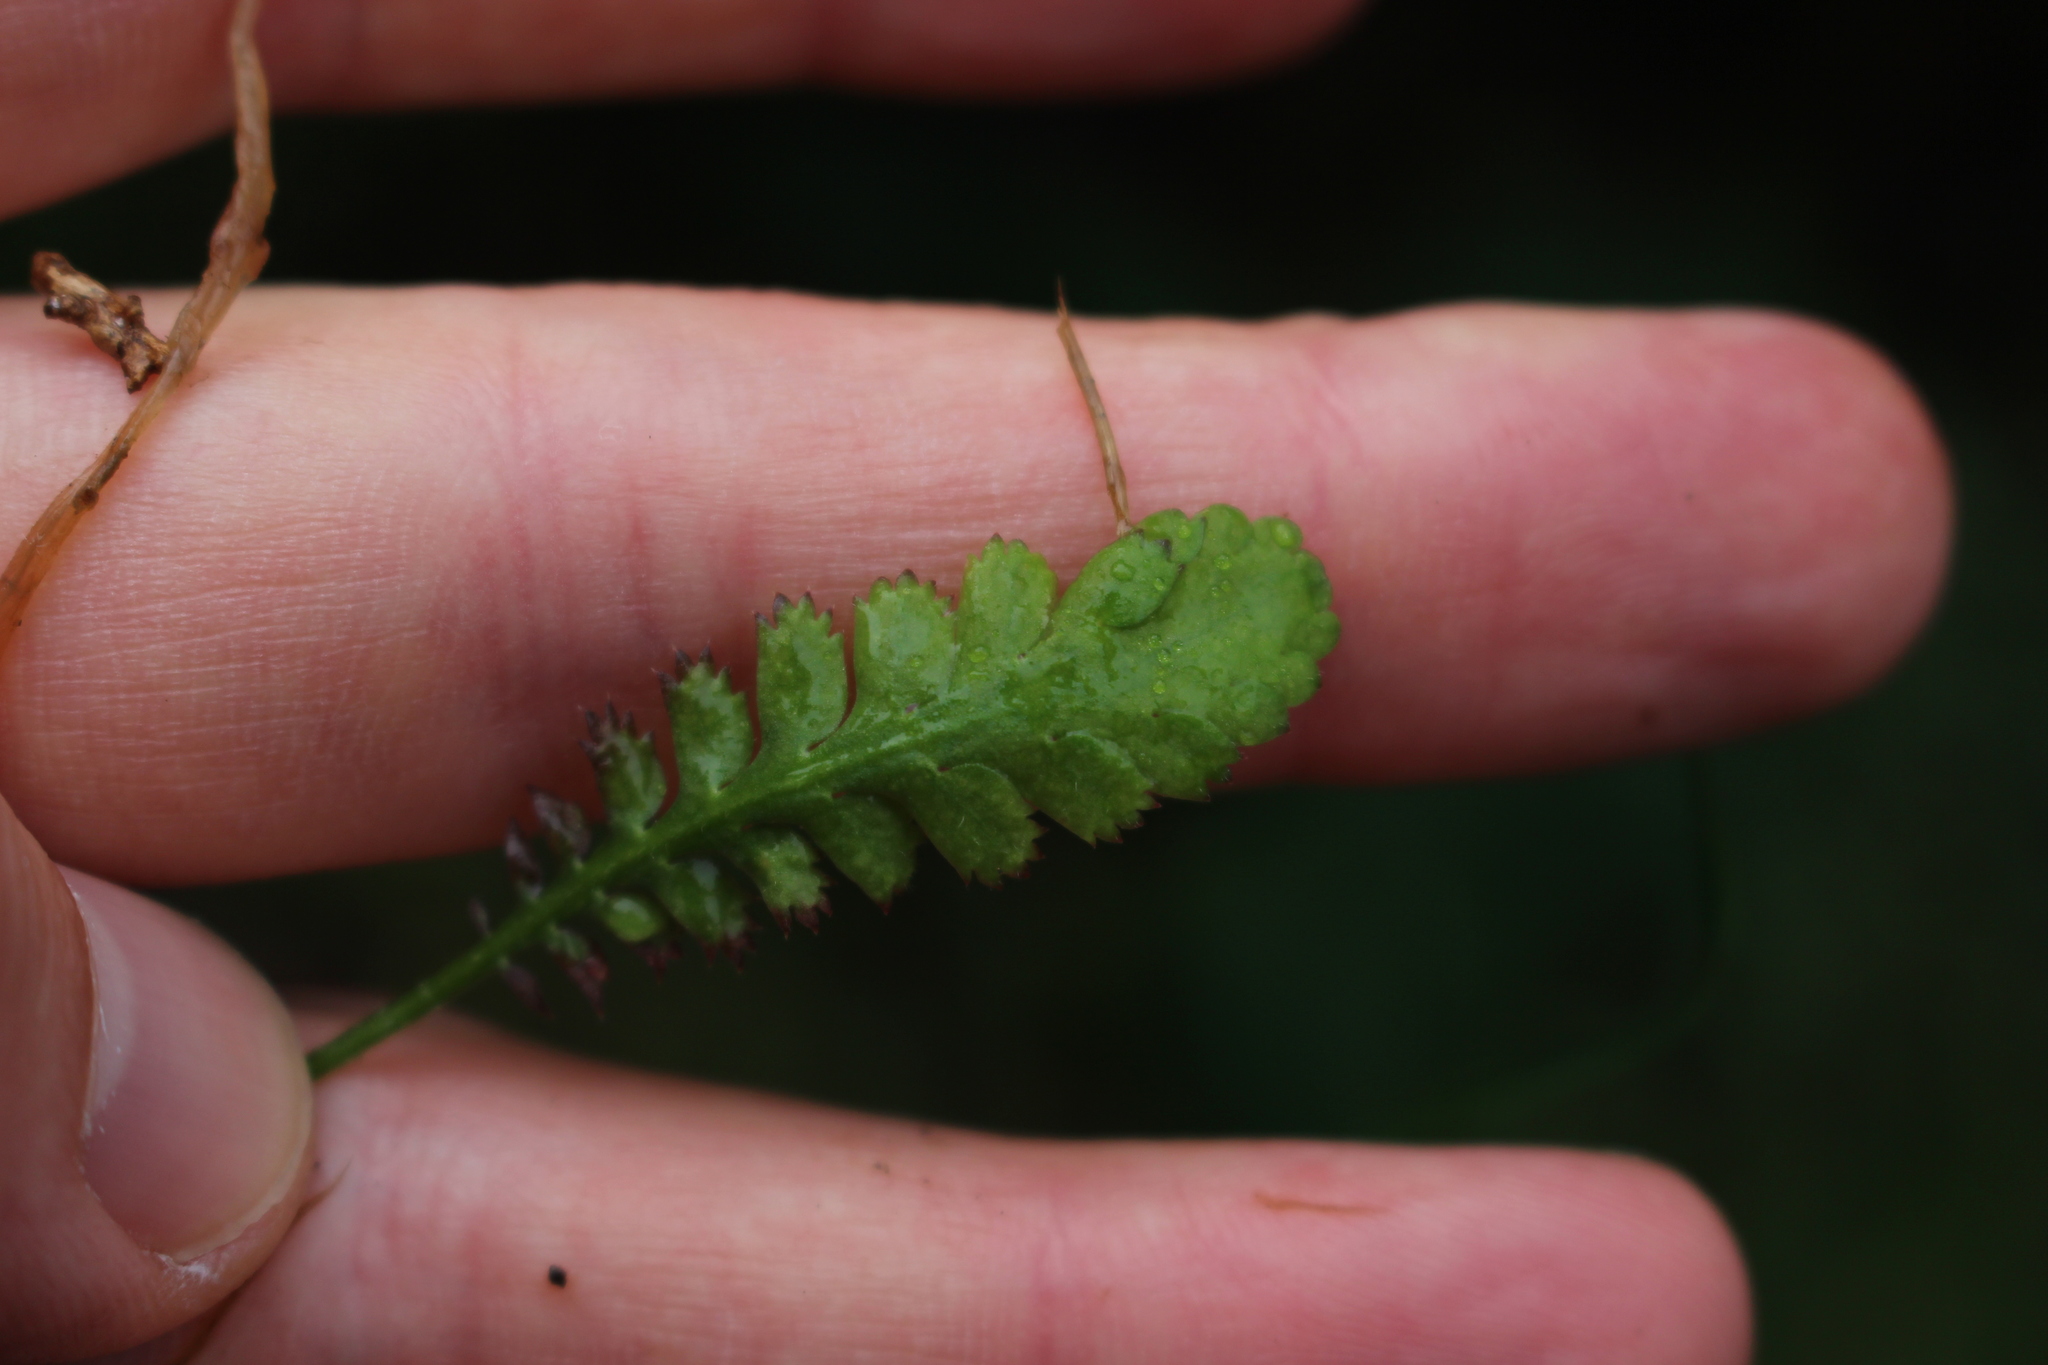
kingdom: Plantae
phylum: Tracheophyta
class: Magnoliopsida
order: Asterales
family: Asteraceae
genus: Leptinella
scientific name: Leptinella
